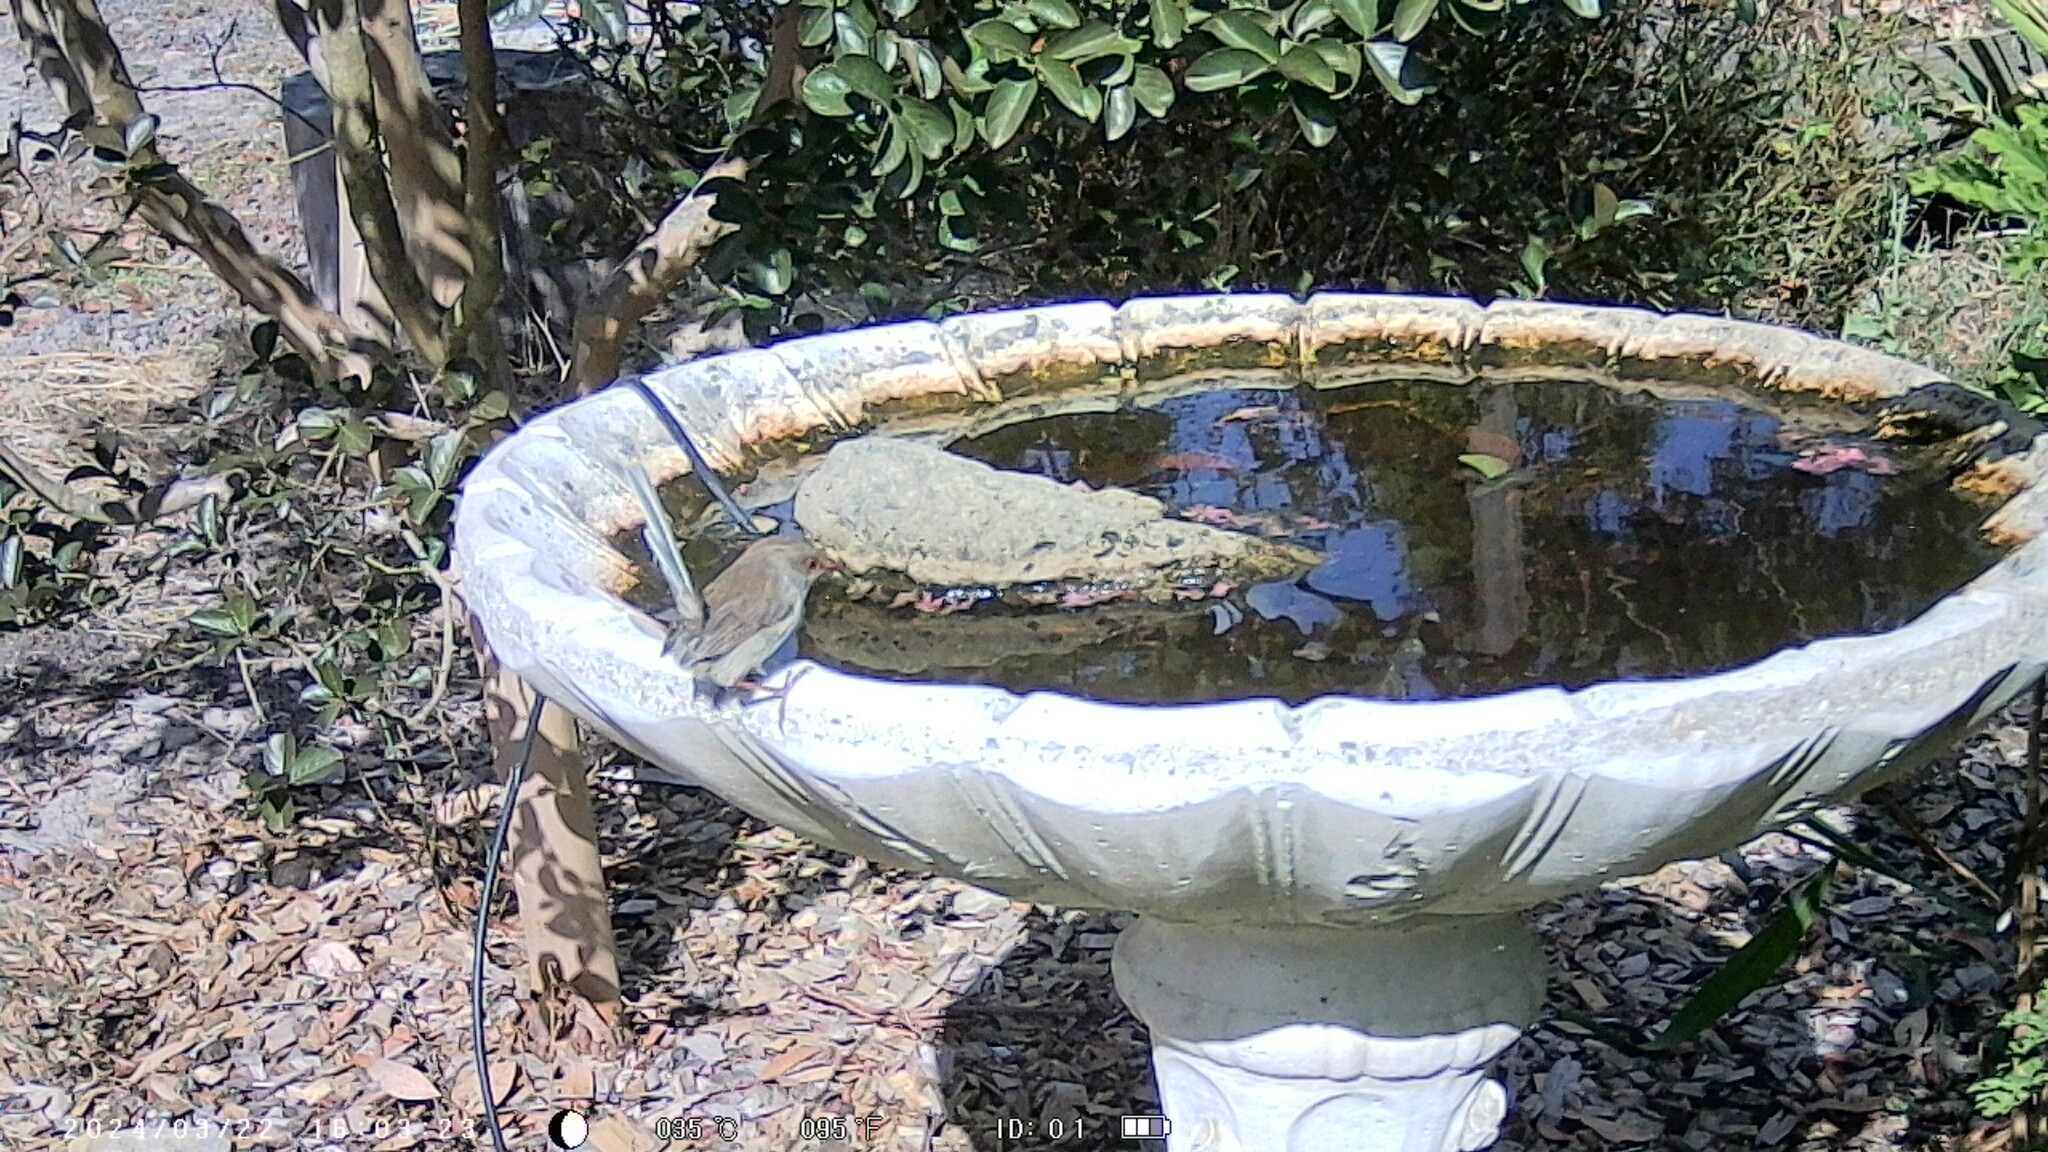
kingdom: Animalia
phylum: Chordata
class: Aves
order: Passeriformes
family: Maluridae
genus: Malurus
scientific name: Malurus cyaneus
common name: Superb fairywren
